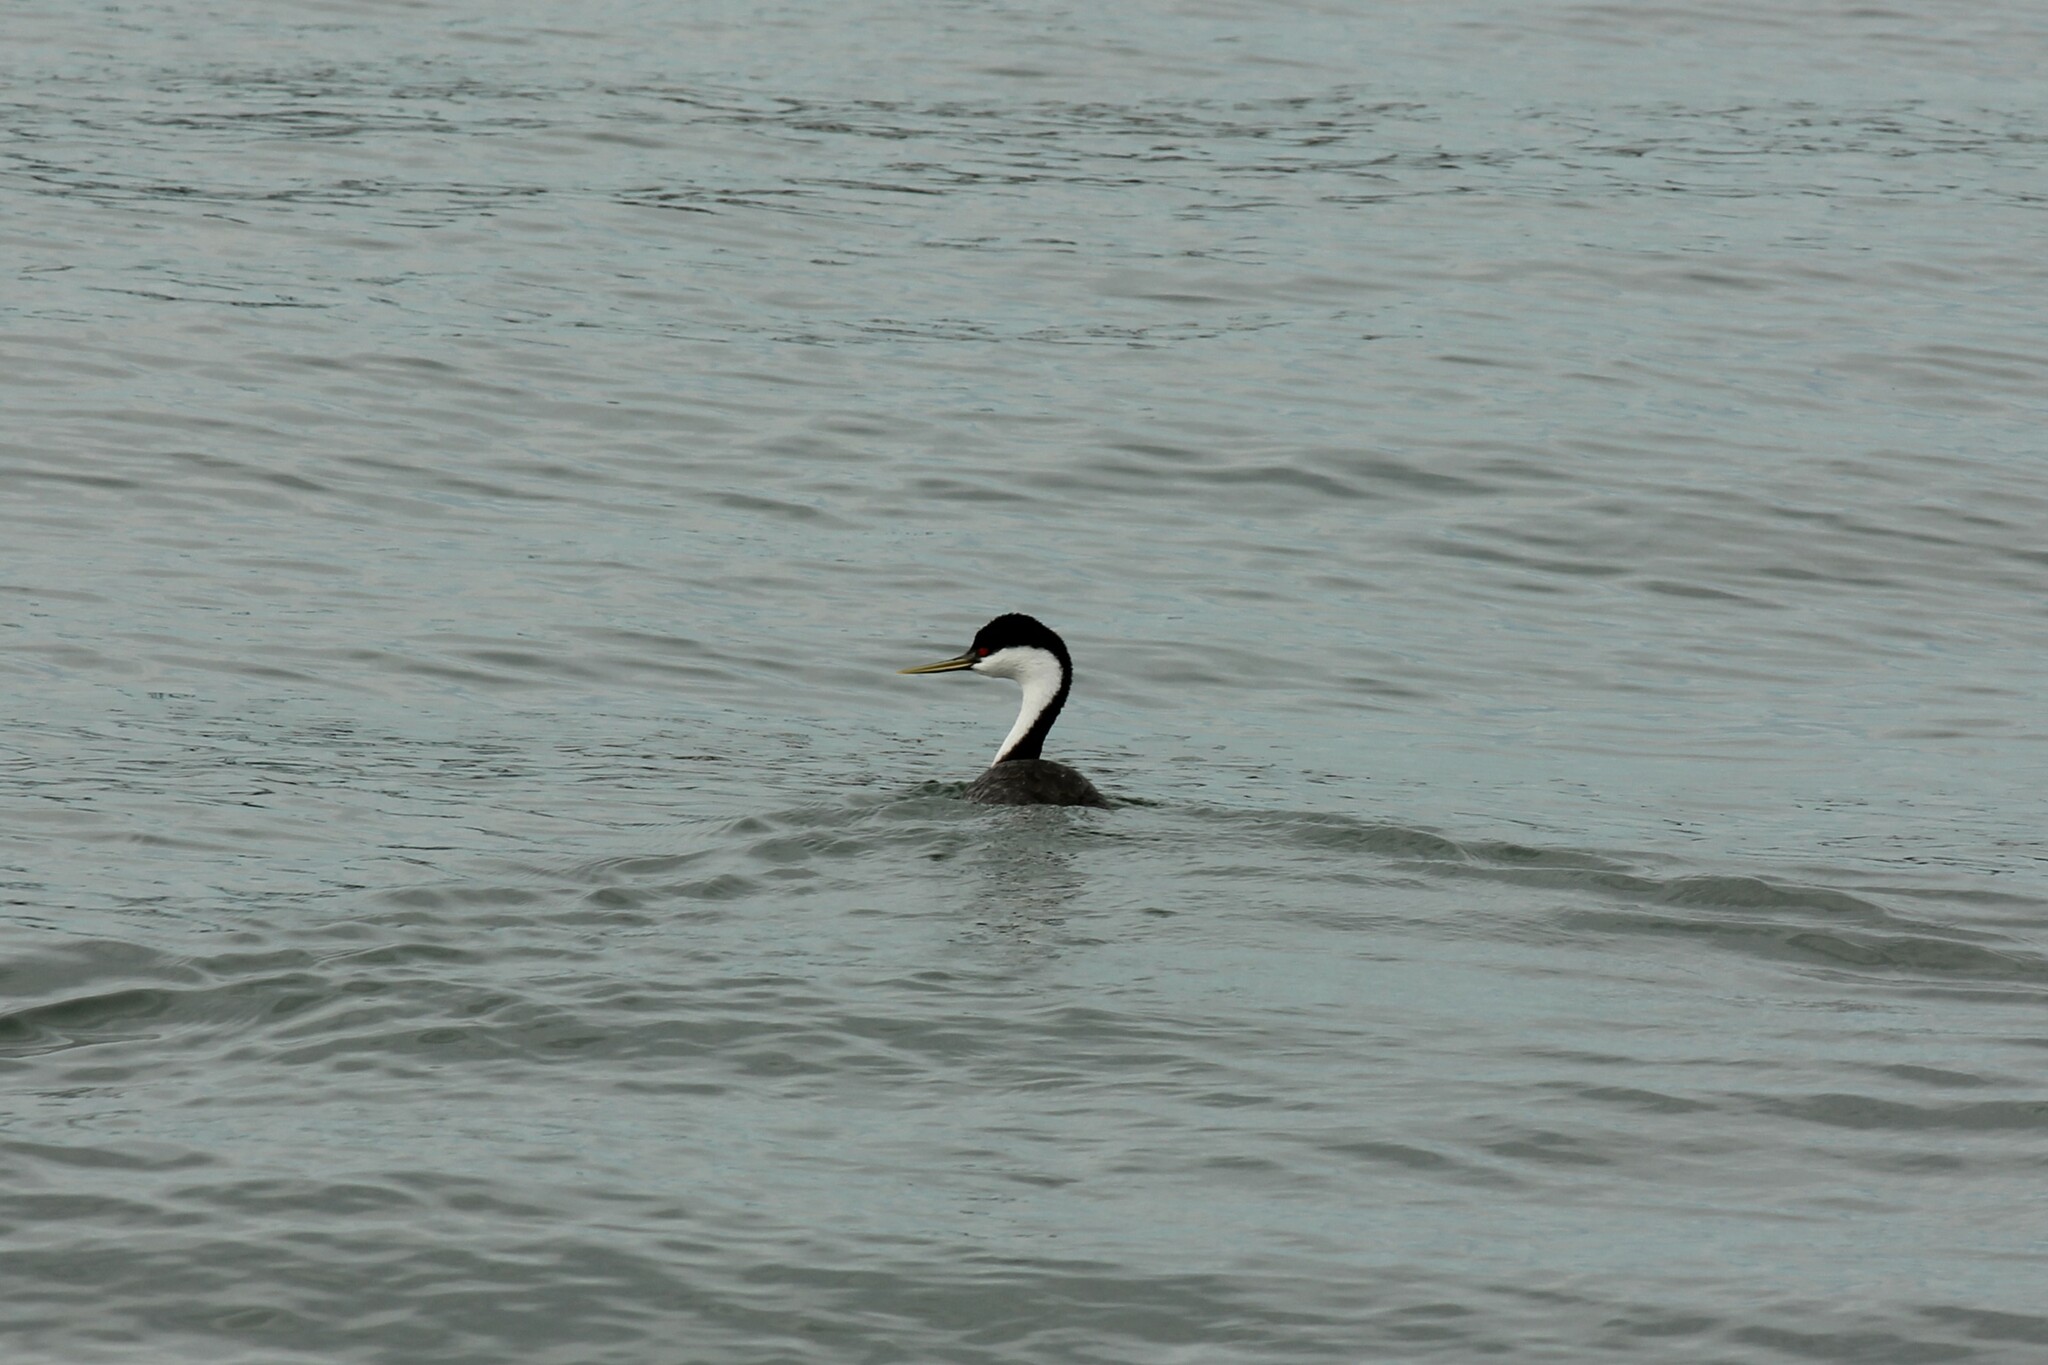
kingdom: Animalia
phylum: Chordata
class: Aves
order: Podicipediformes
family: Podicipedidae
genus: Aechmophorus
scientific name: Aechmophorus occidentalis
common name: Western grebe
